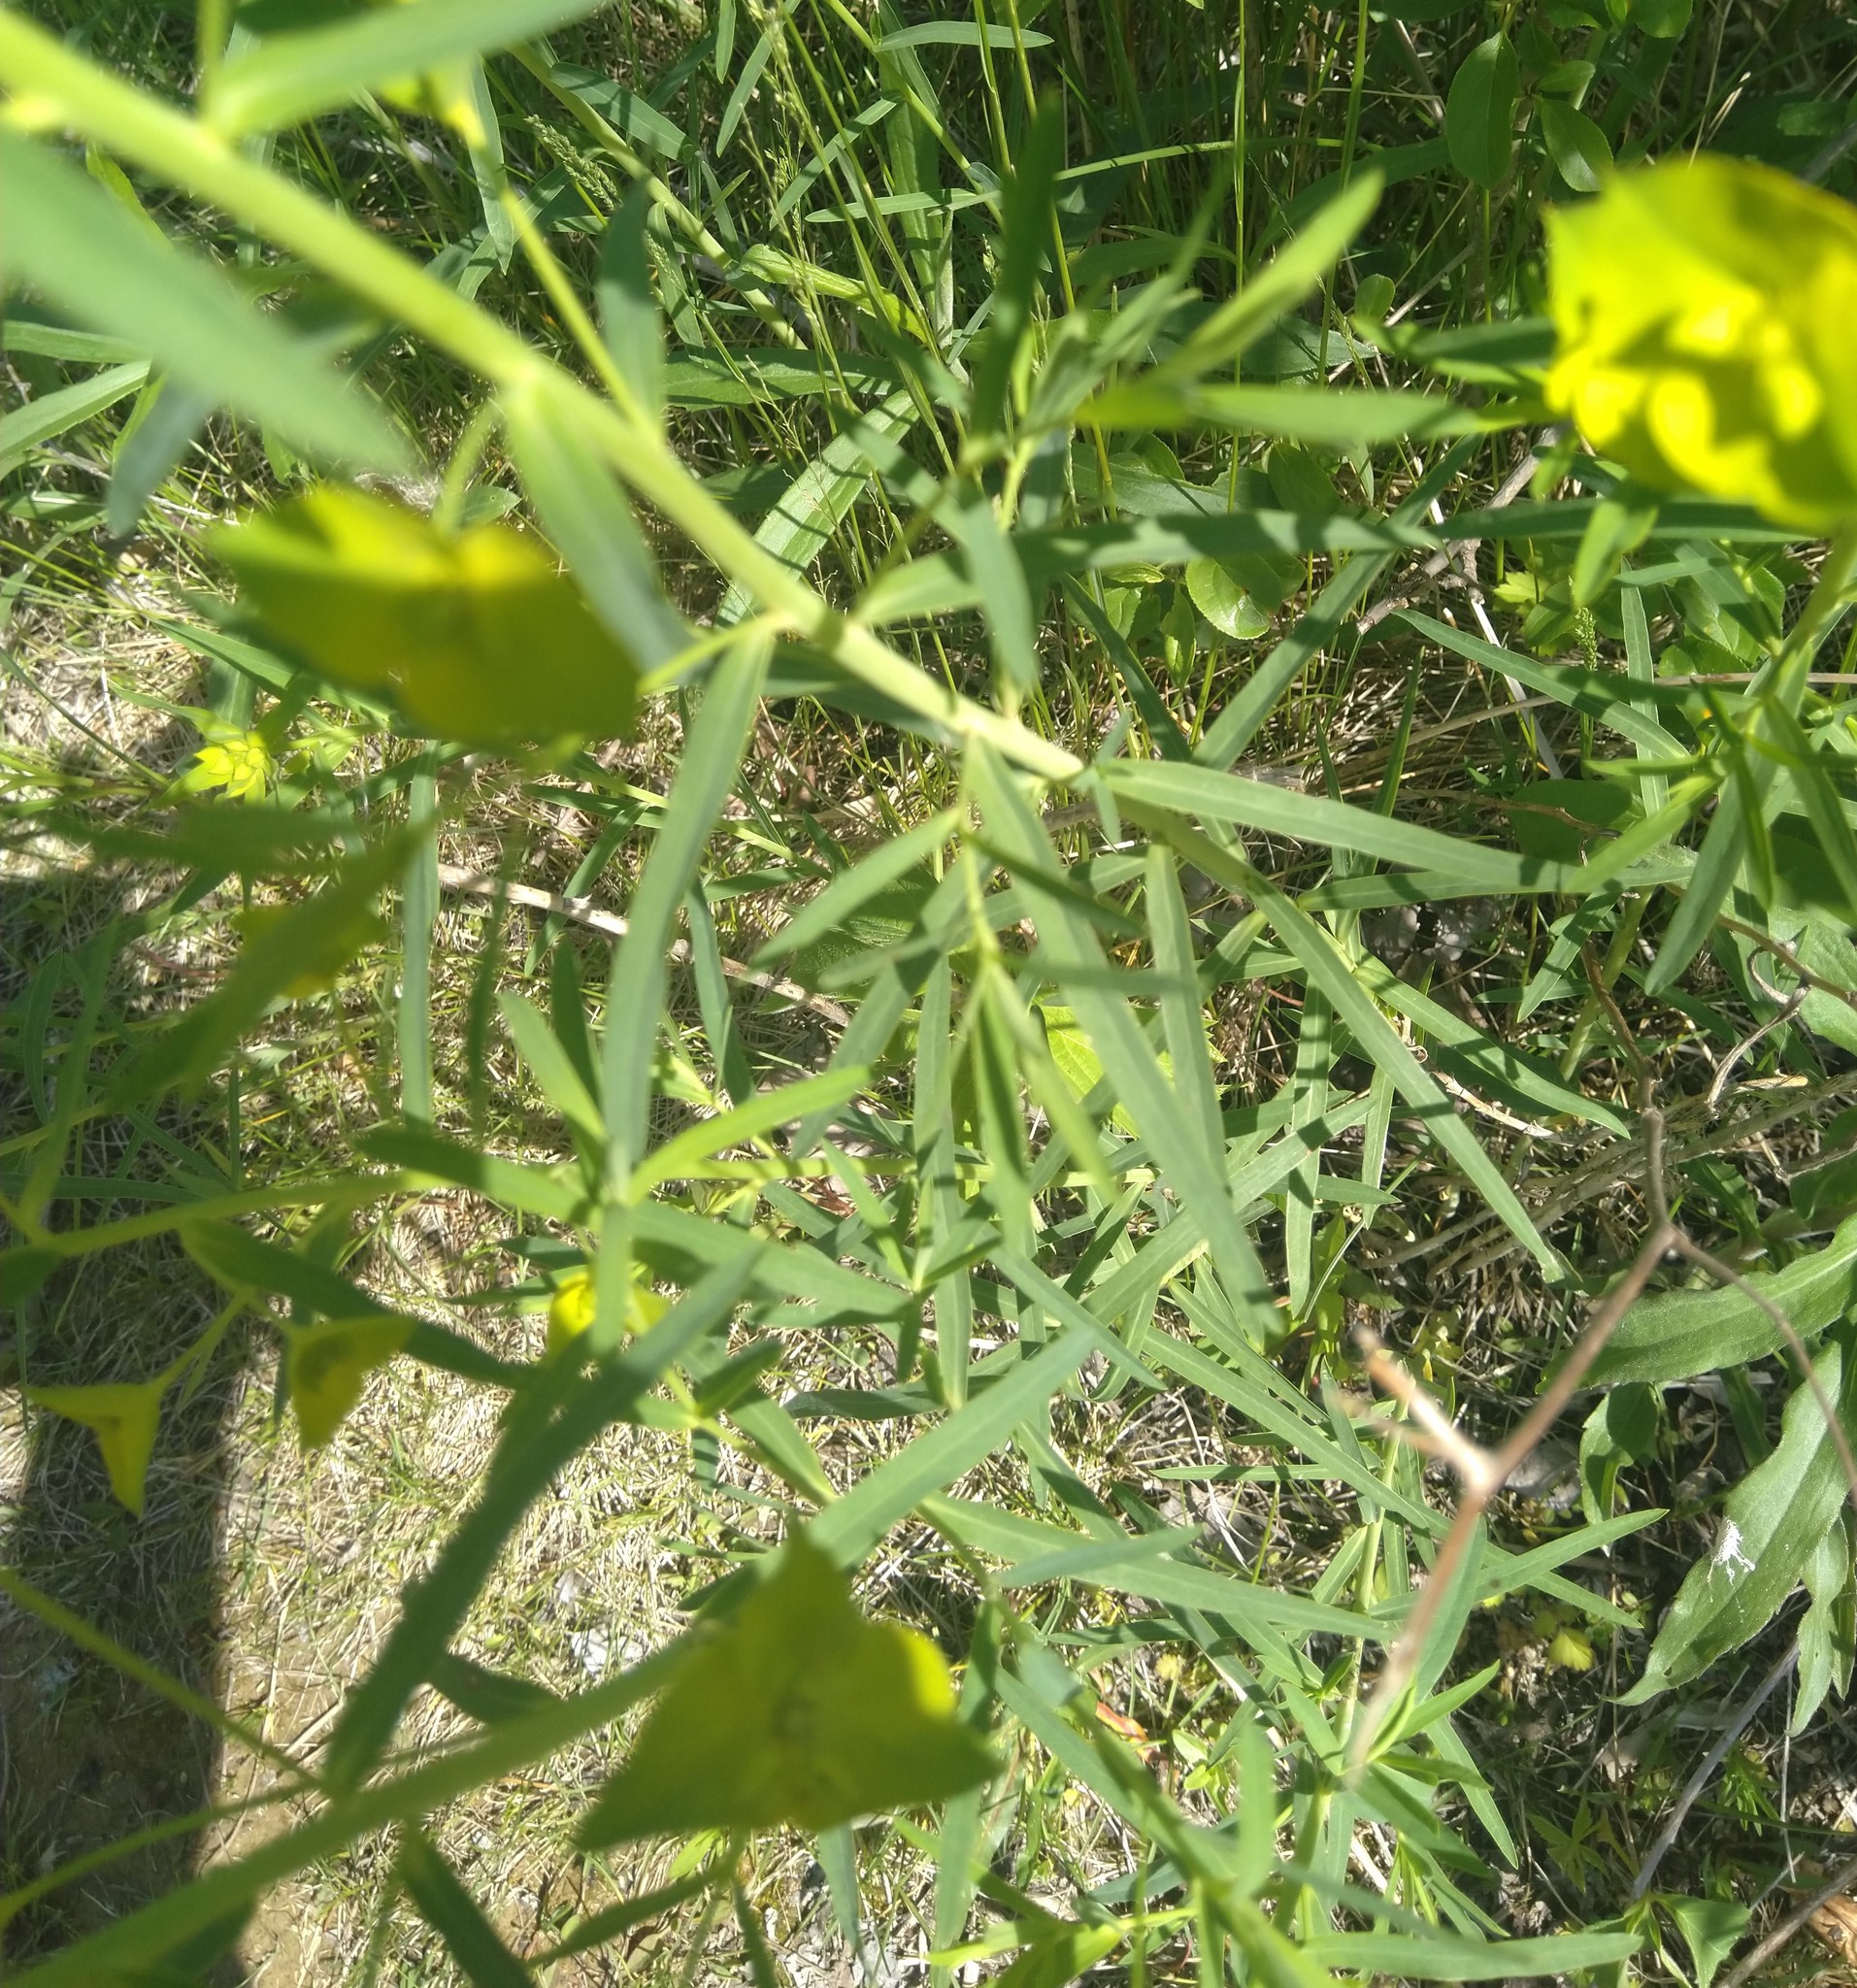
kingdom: Plantae
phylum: Tracheophyta
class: Magnoliopsida
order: Malpighiales
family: Euphorbiaceae
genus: Euphorbia
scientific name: Euphorbia virgata
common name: Leafy spurge
